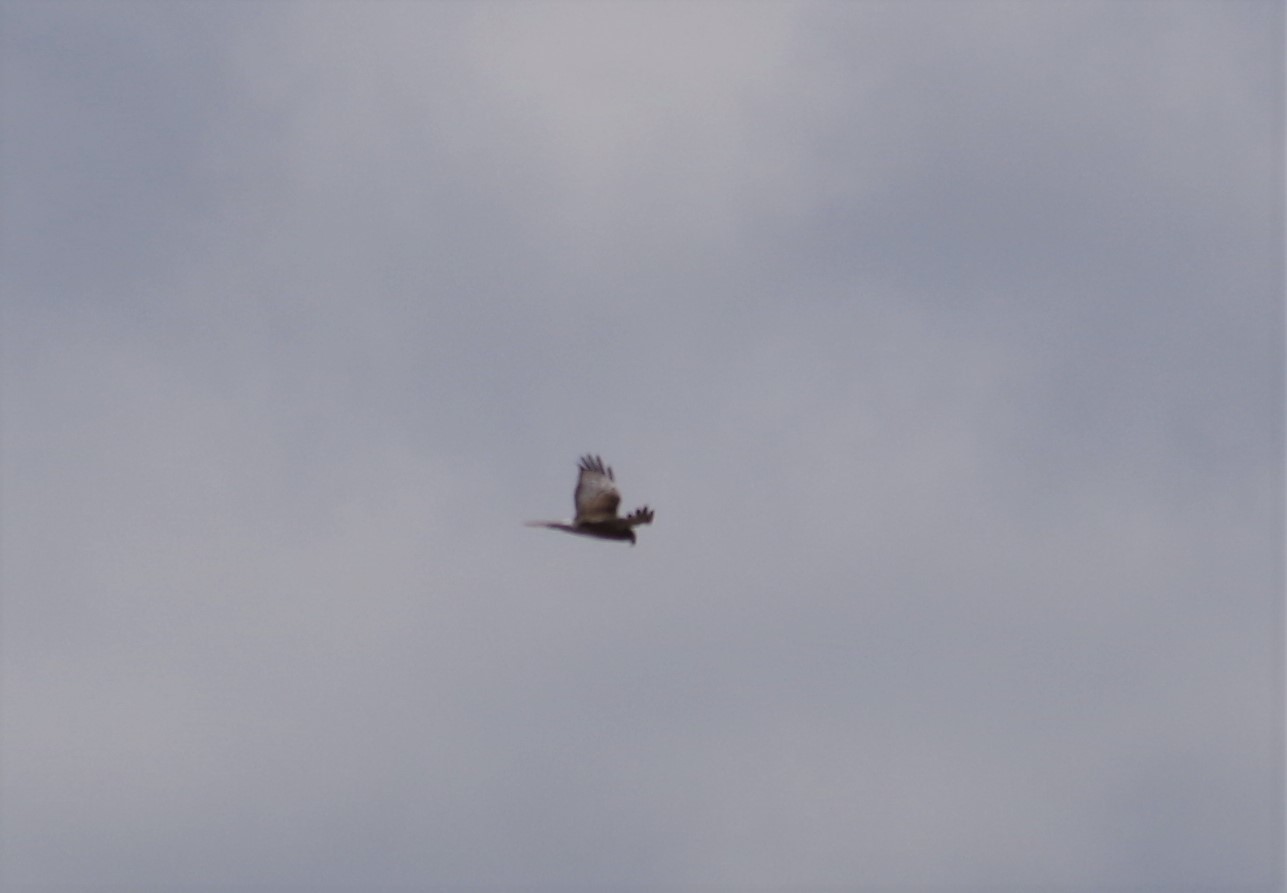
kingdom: Animalia
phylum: Chordata
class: Aves
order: Accipitriformes
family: Accipitridae
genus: Circus
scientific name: Circus approximans
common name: Swamp harrier
